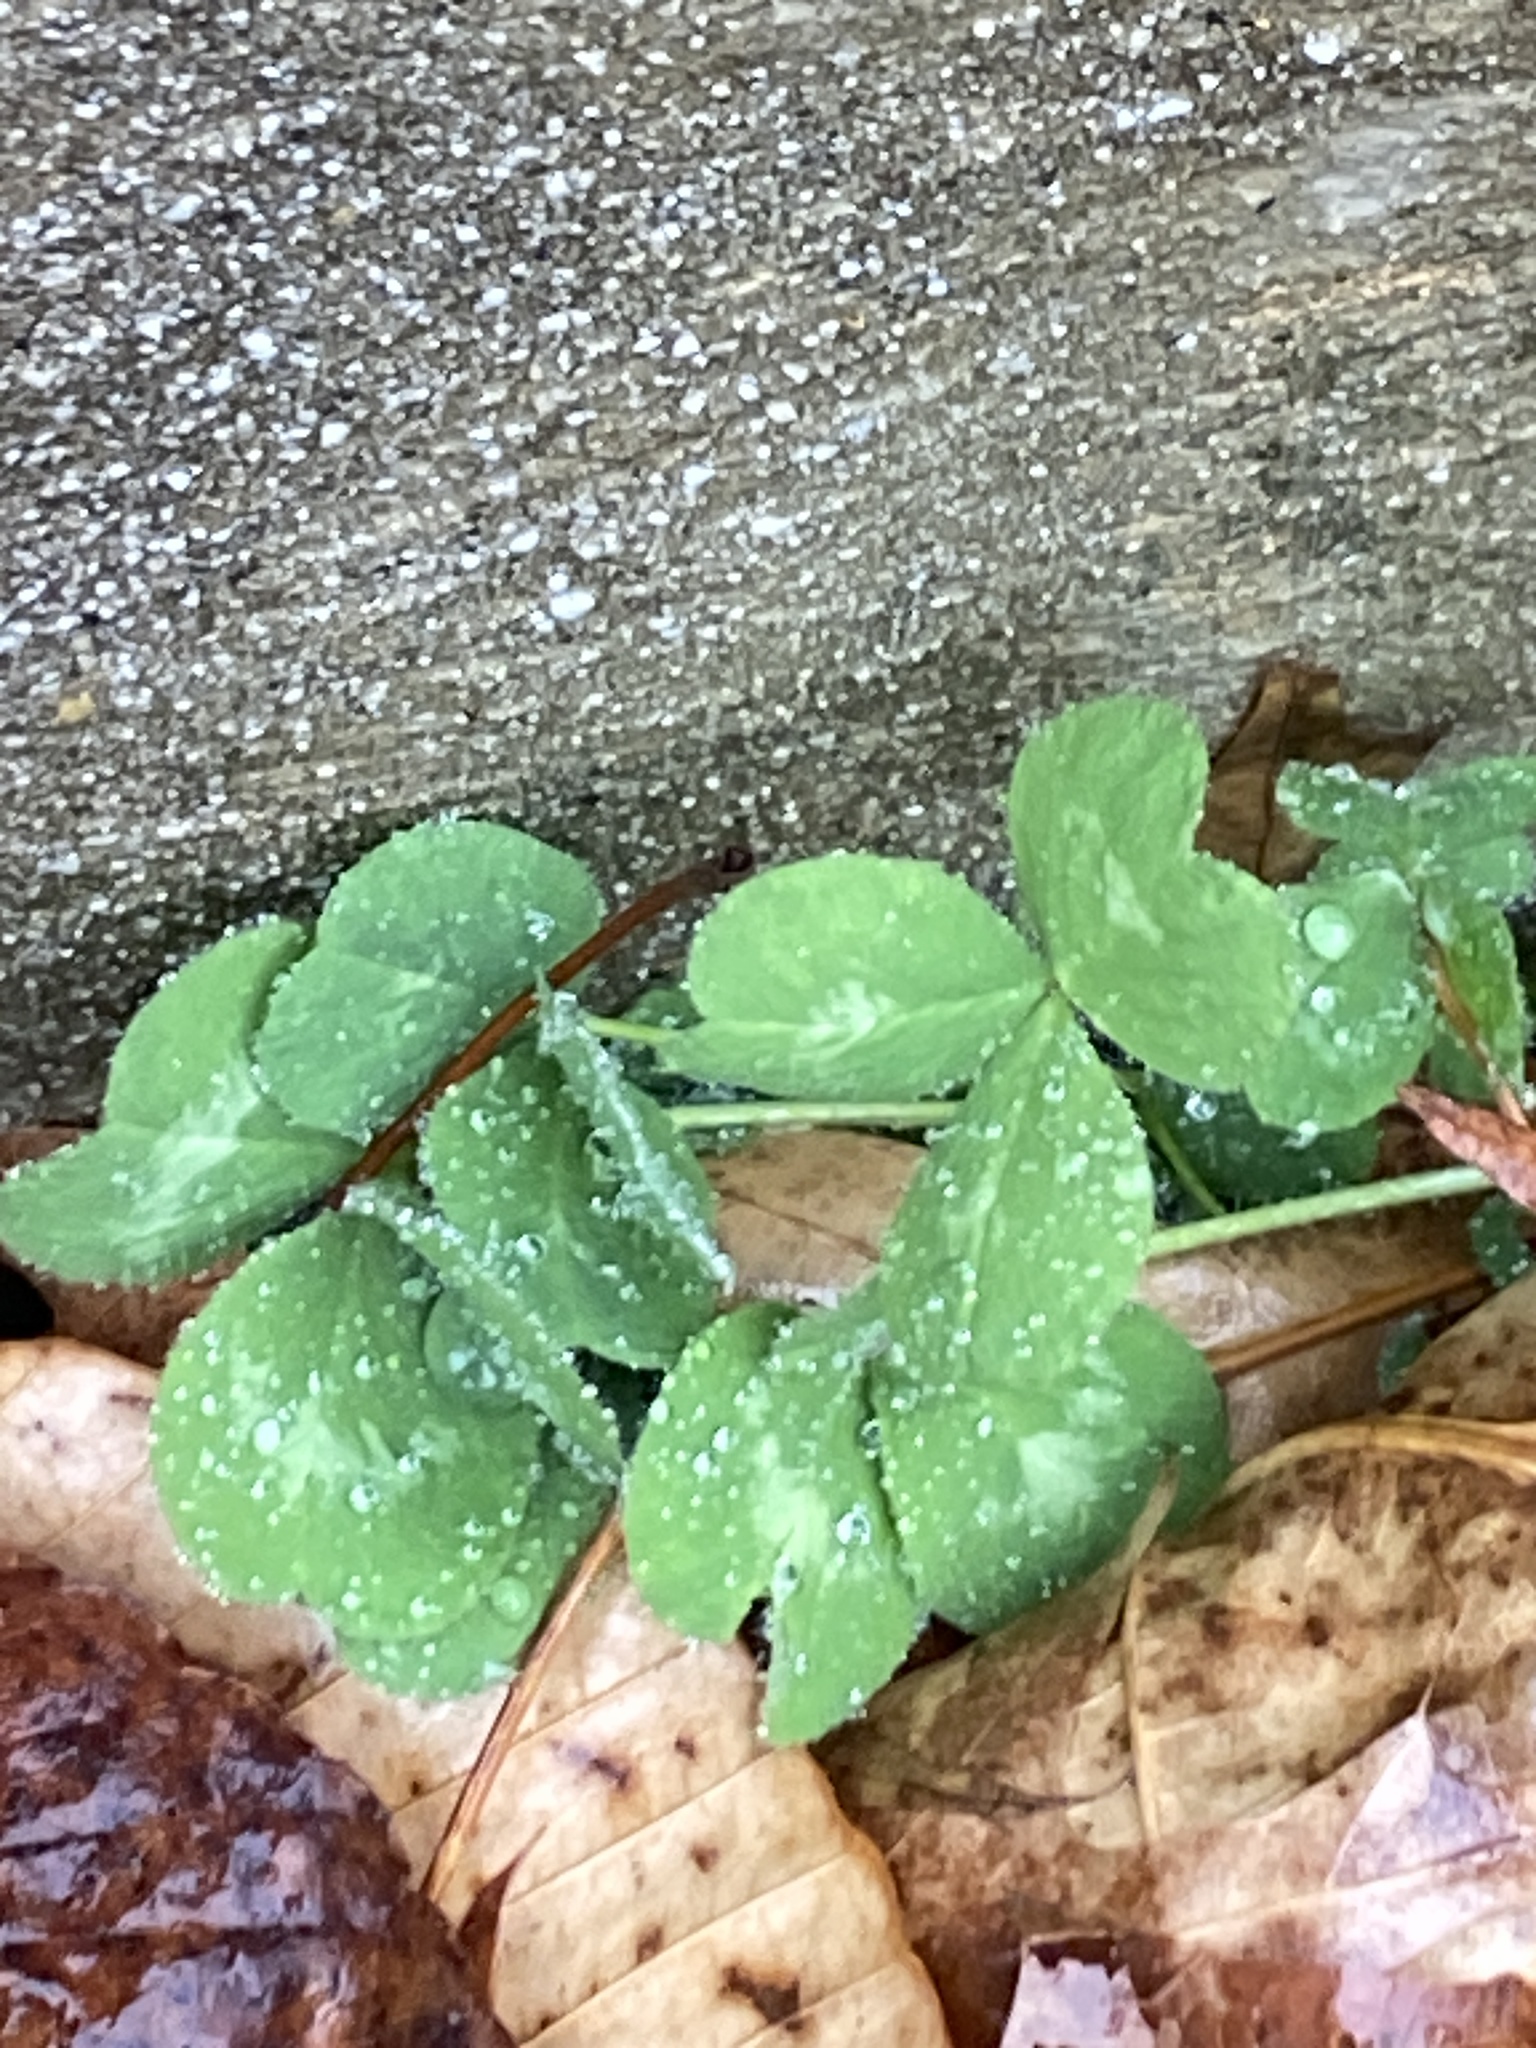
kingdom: Plantae
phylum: Tracheophyta
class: Magnoliopsida
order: Fabales
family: Fabaceae
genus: Trifolium
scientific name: Trifolium pratense
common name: Red clover
